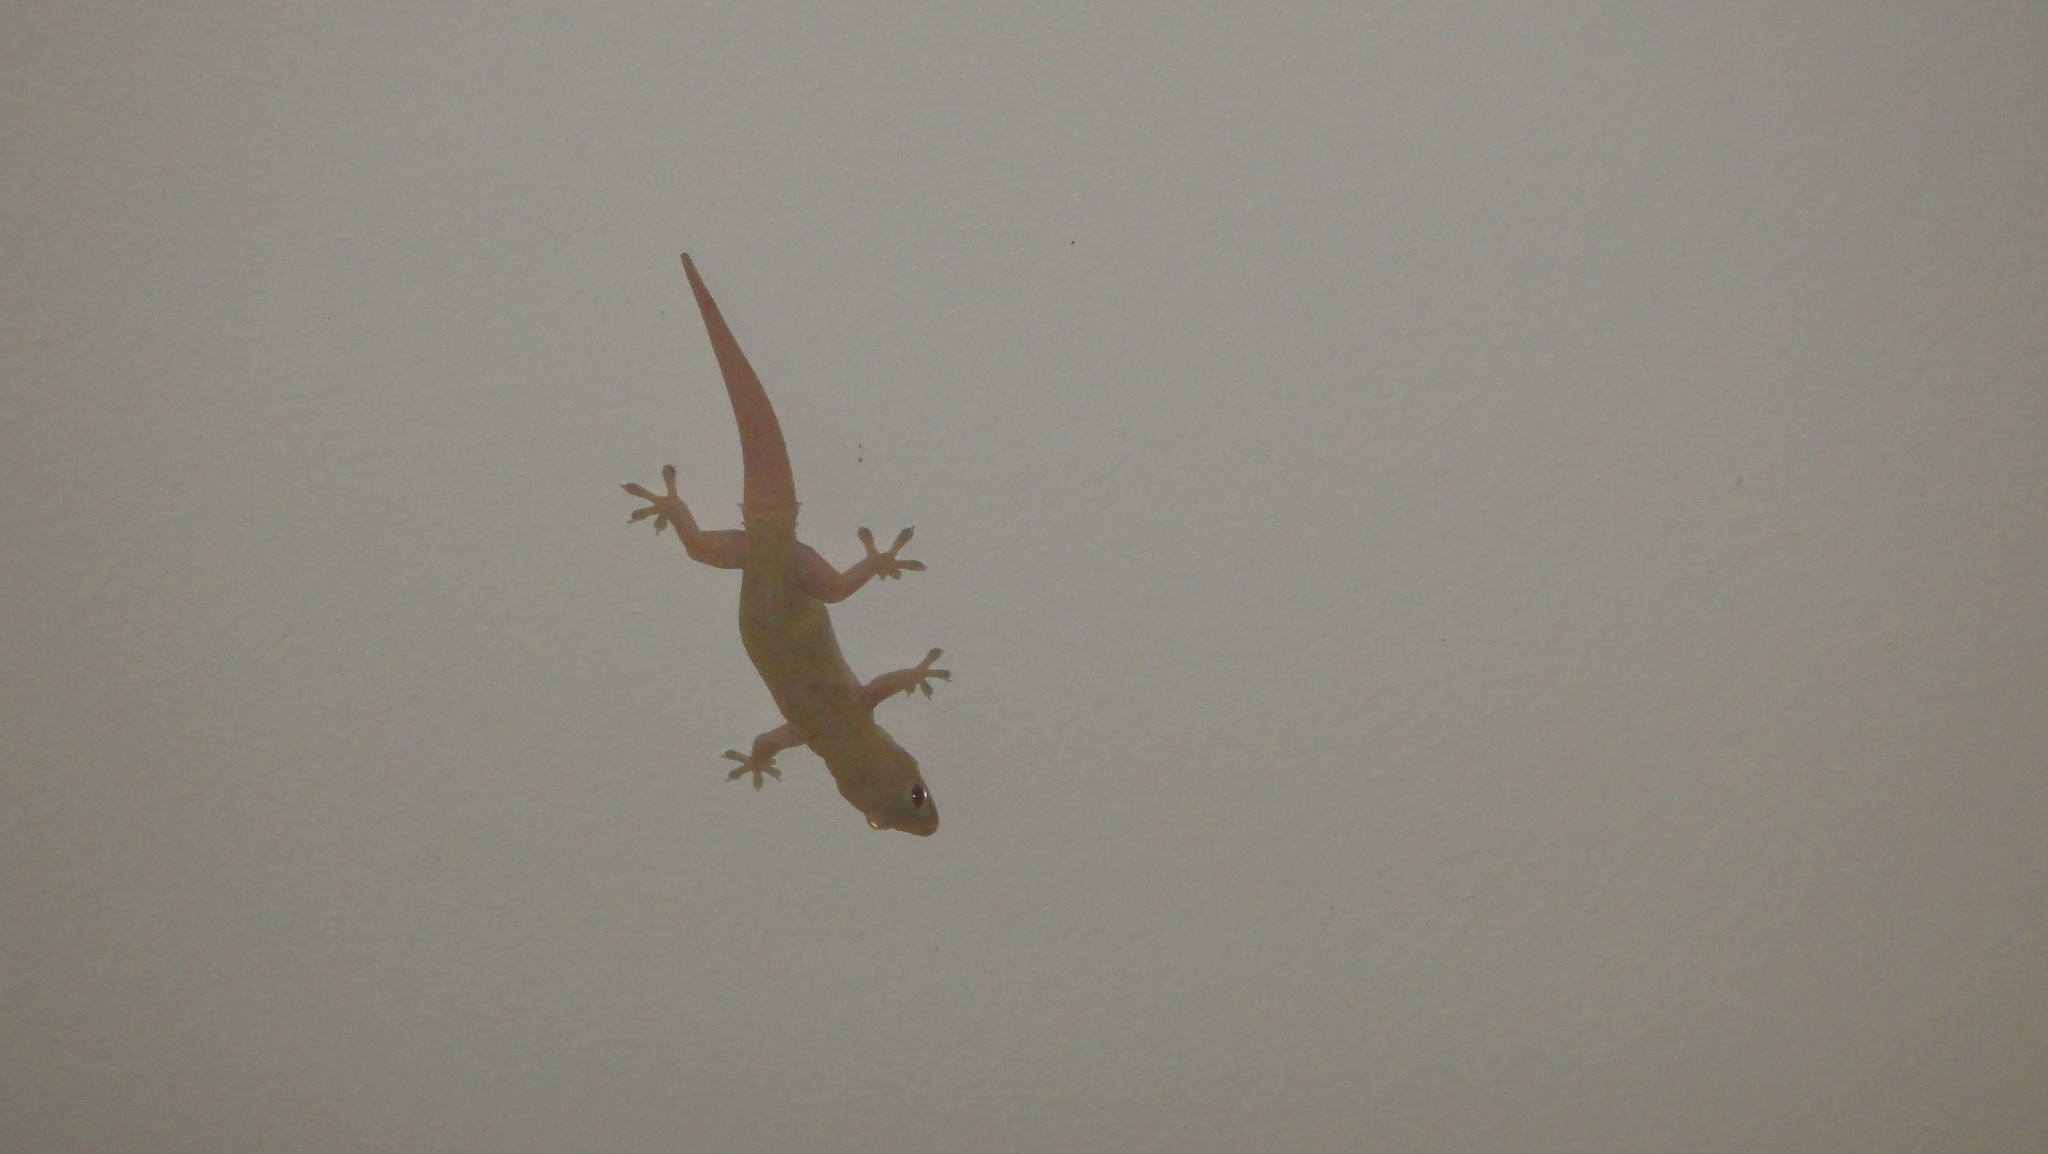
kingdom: Animalia
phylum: Chordata
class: Squamata
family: Gekkonidae
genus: Hemidactylus
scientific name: Hemidactylus frenatus
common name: Common house gecko
